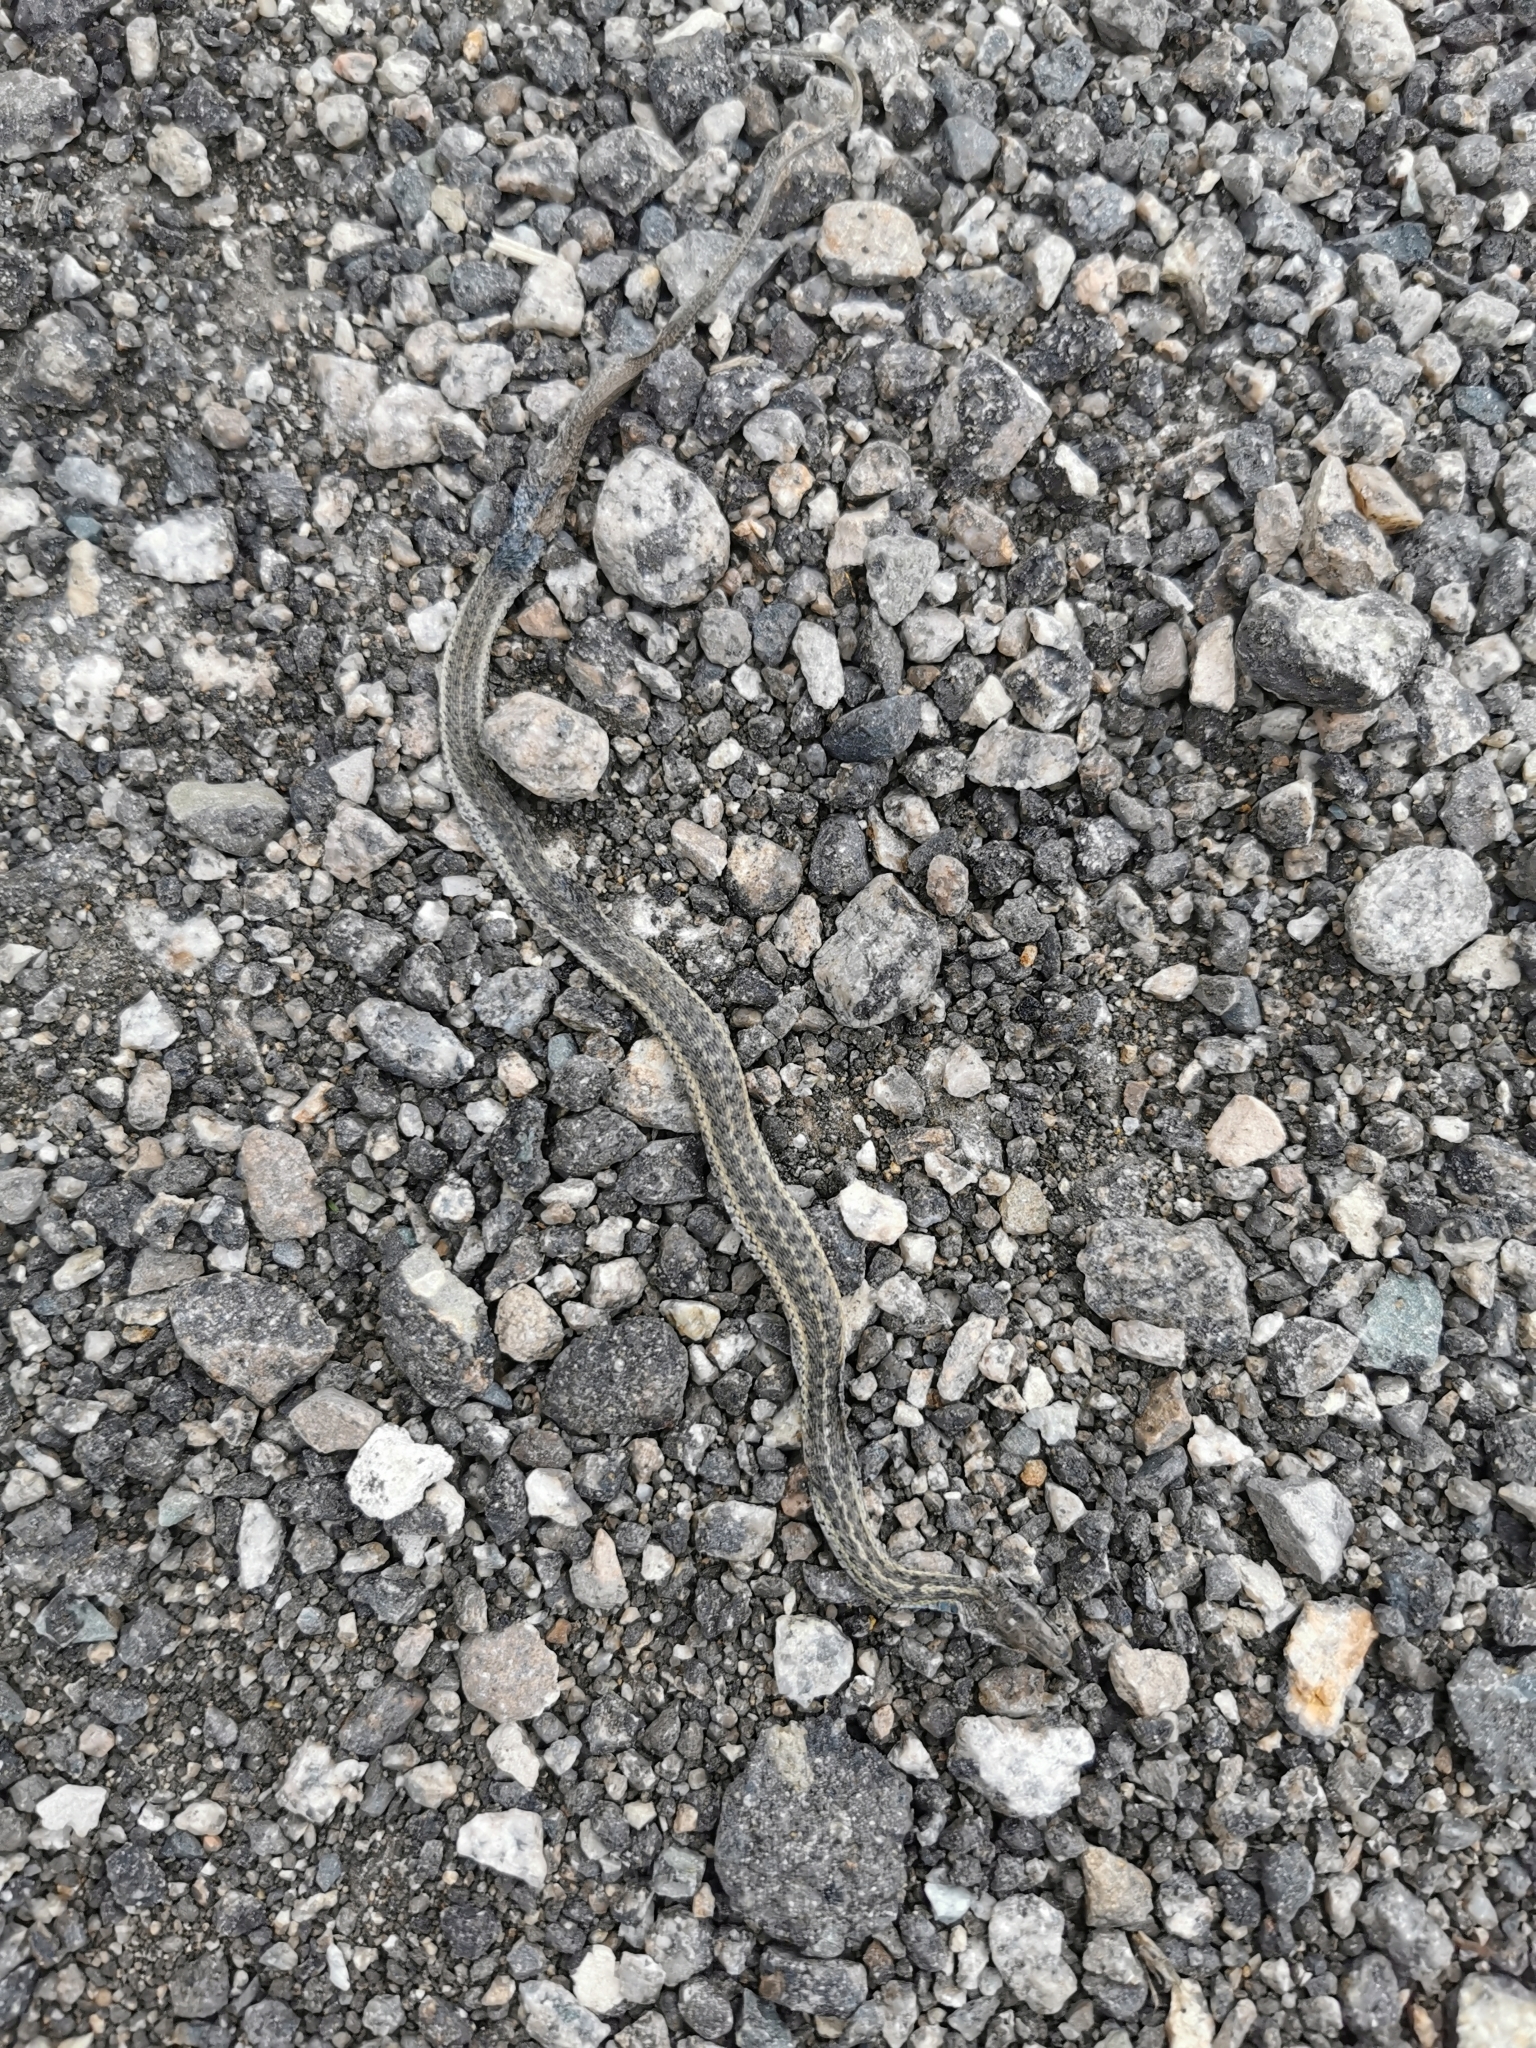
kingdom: Animalia
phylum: Chordata
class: Squamata
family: Colubridae
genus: Thamnophis
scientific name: Thamnophis elegans
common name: Western terrestrial garter snake
